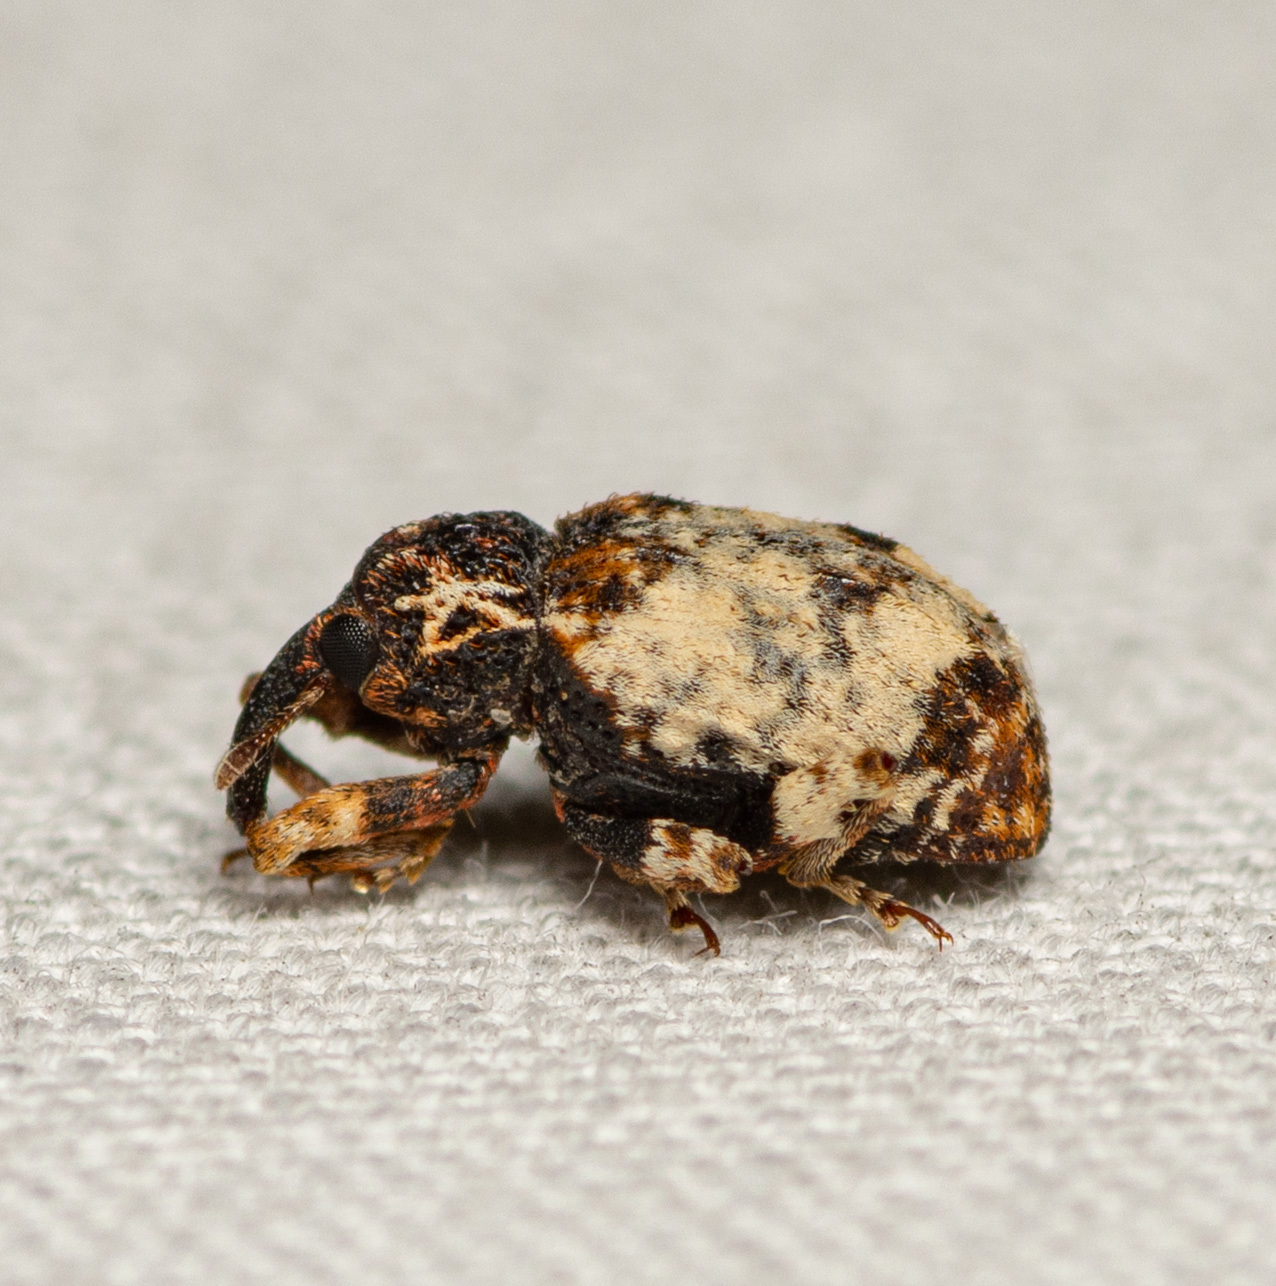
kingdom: Animalia
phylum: Arthropoda
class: Insecta
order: Coleoptera
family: Curculionidae
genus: Conotrachelus
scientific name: Conotrachelus leucophaeatus
